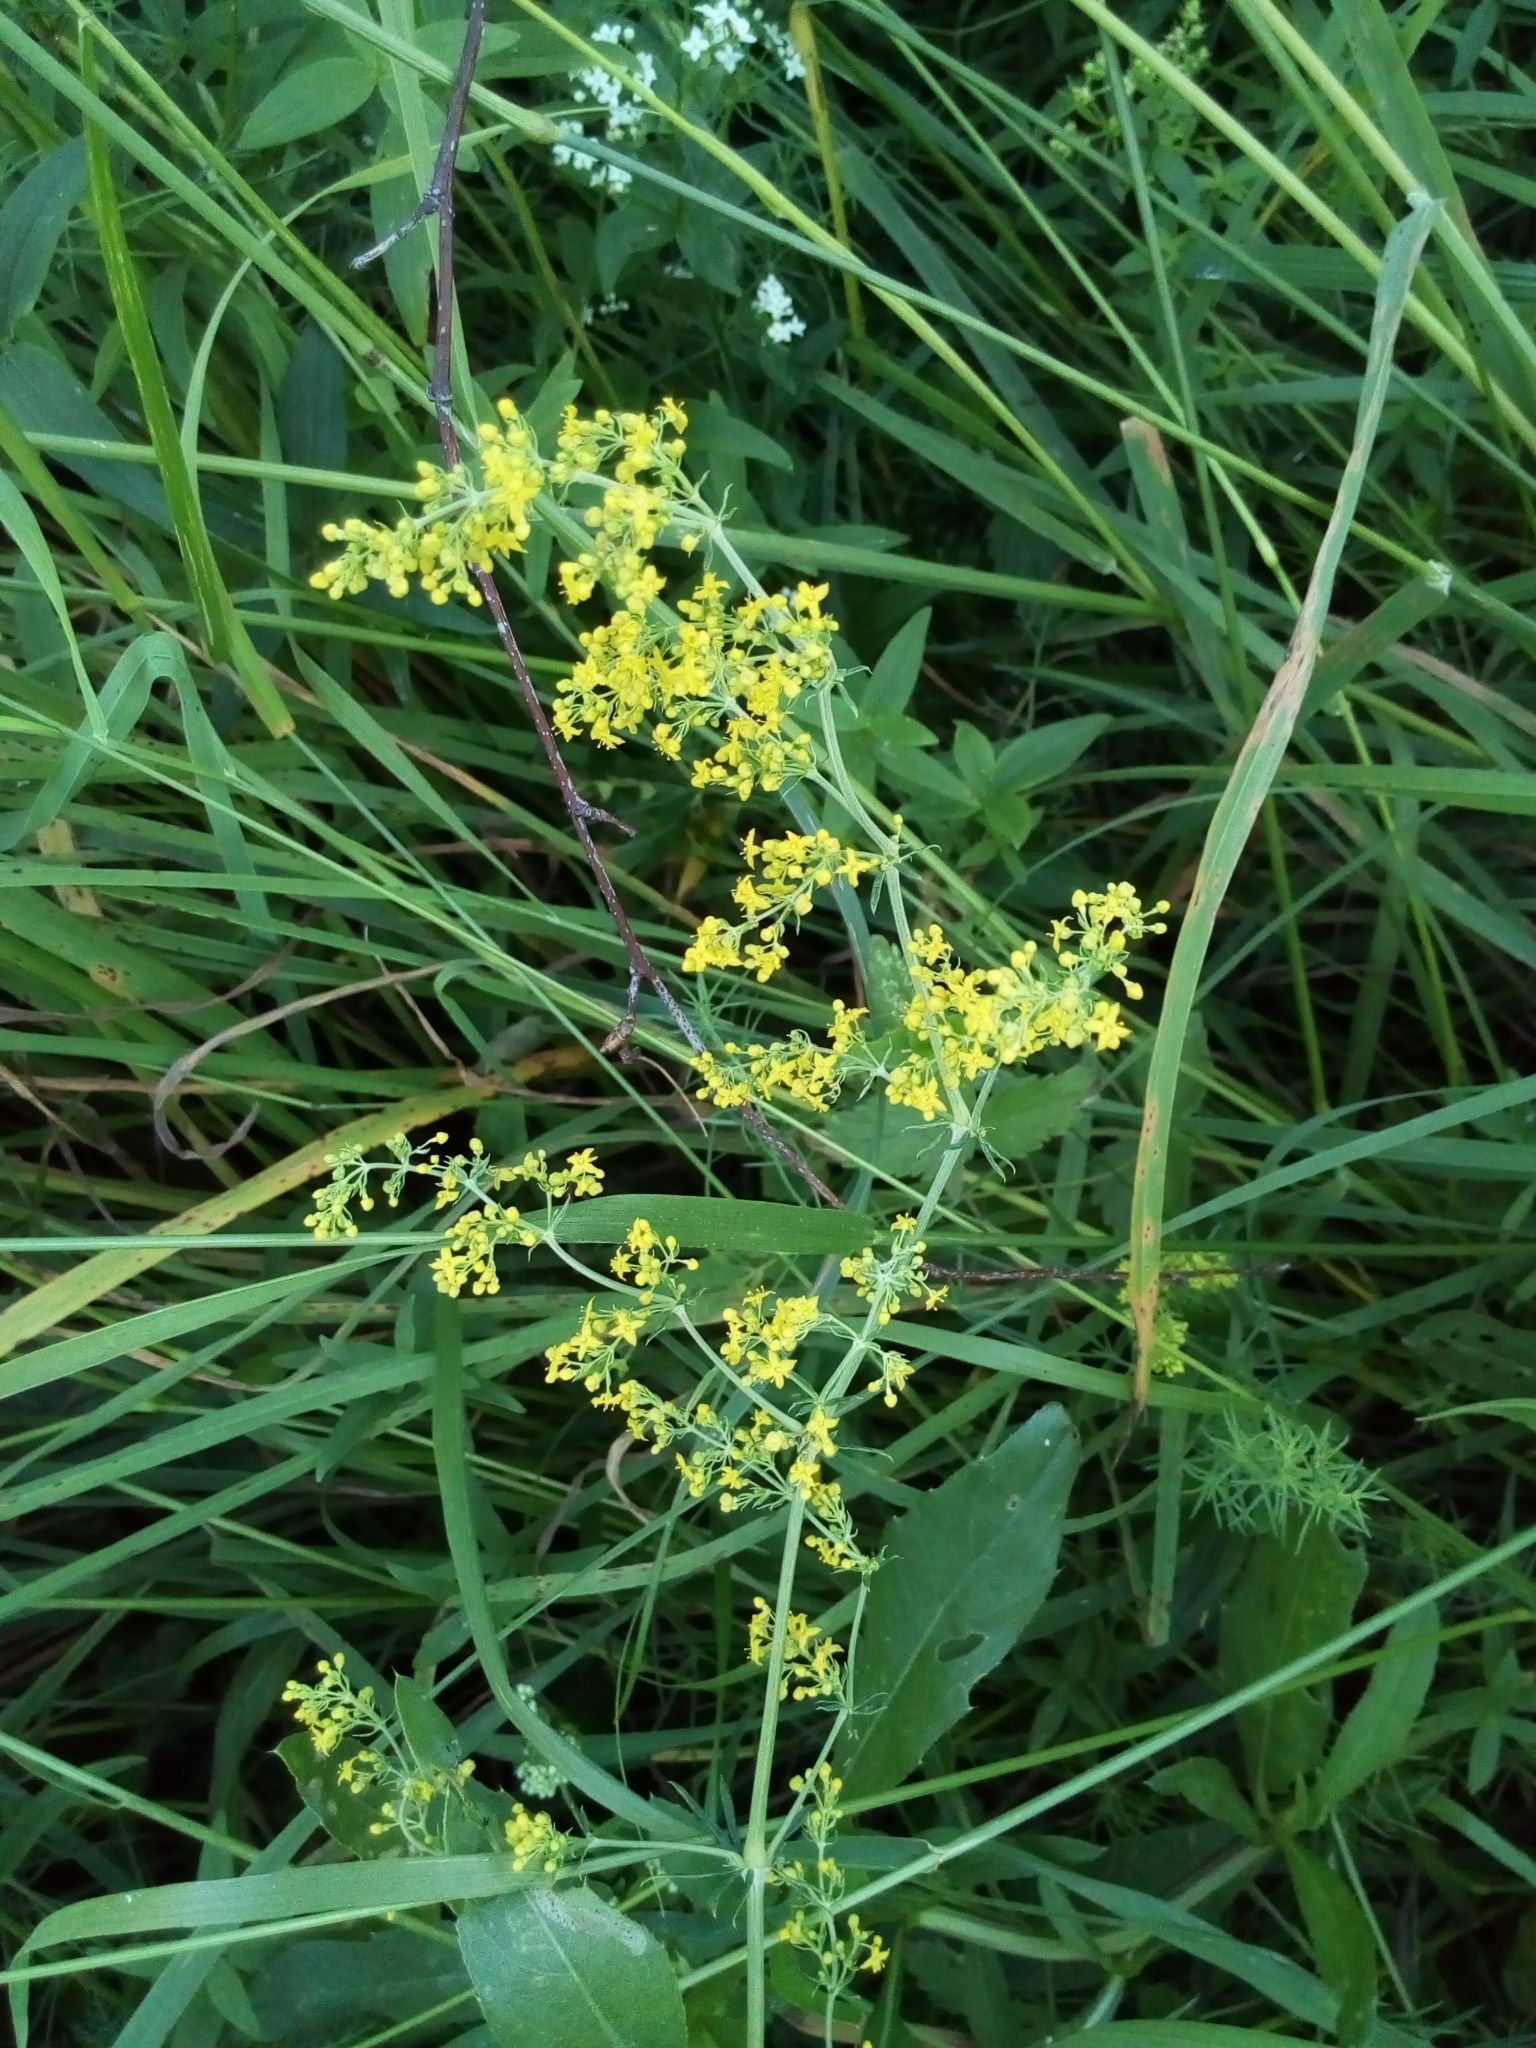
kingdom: Plantae
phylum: Tracheophyta
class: Magnoliopsida
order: Gentianales
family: Rubiaceae
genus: Galium
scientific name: Galium verum
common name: Lady's bedstraw
